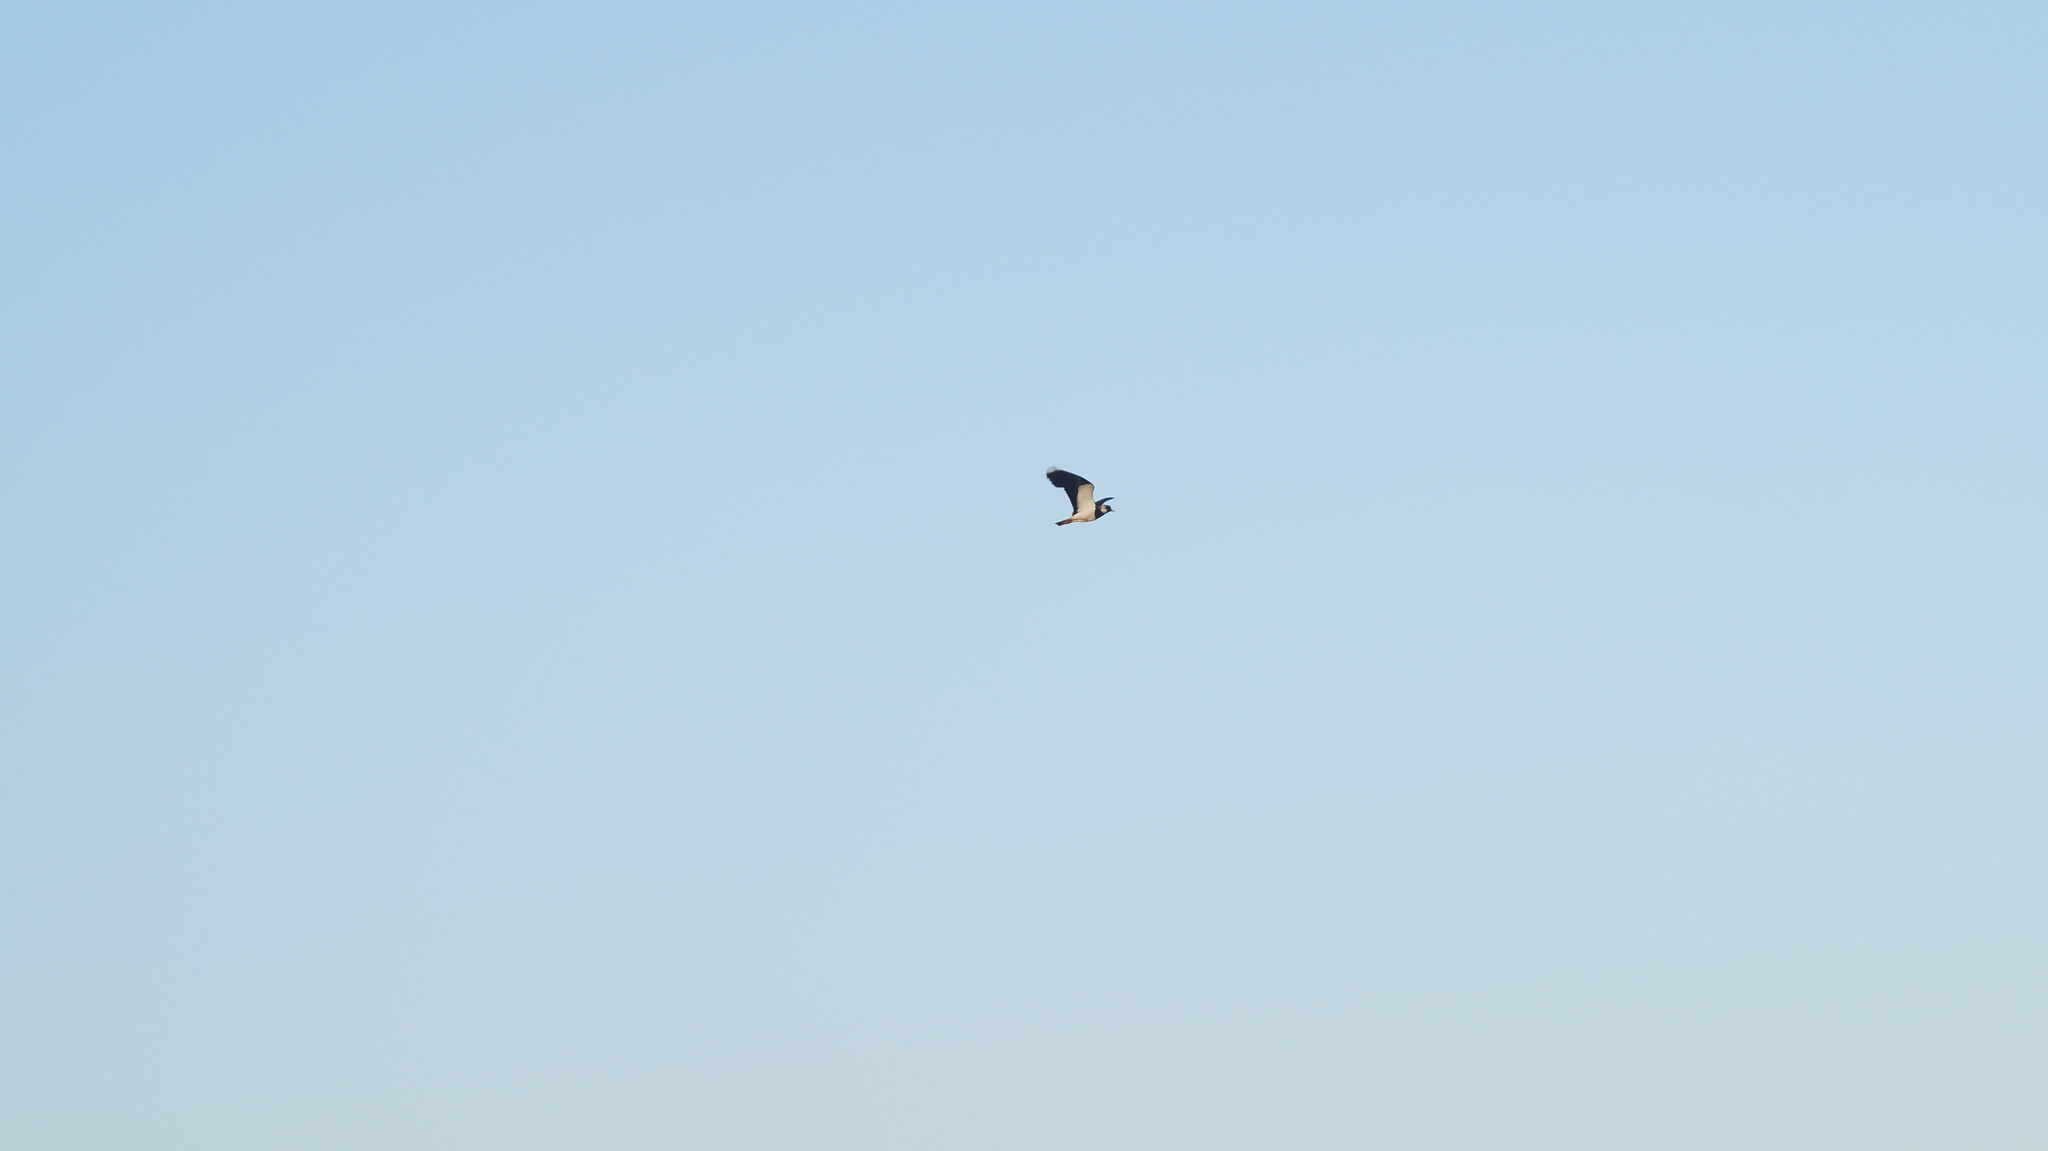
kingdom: Animalia
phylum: Chordata
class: Aves
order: Charadriiformes
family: Charadriidae
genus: Vanellus
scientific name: Vanellus vanellus
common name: Northern lapwing
